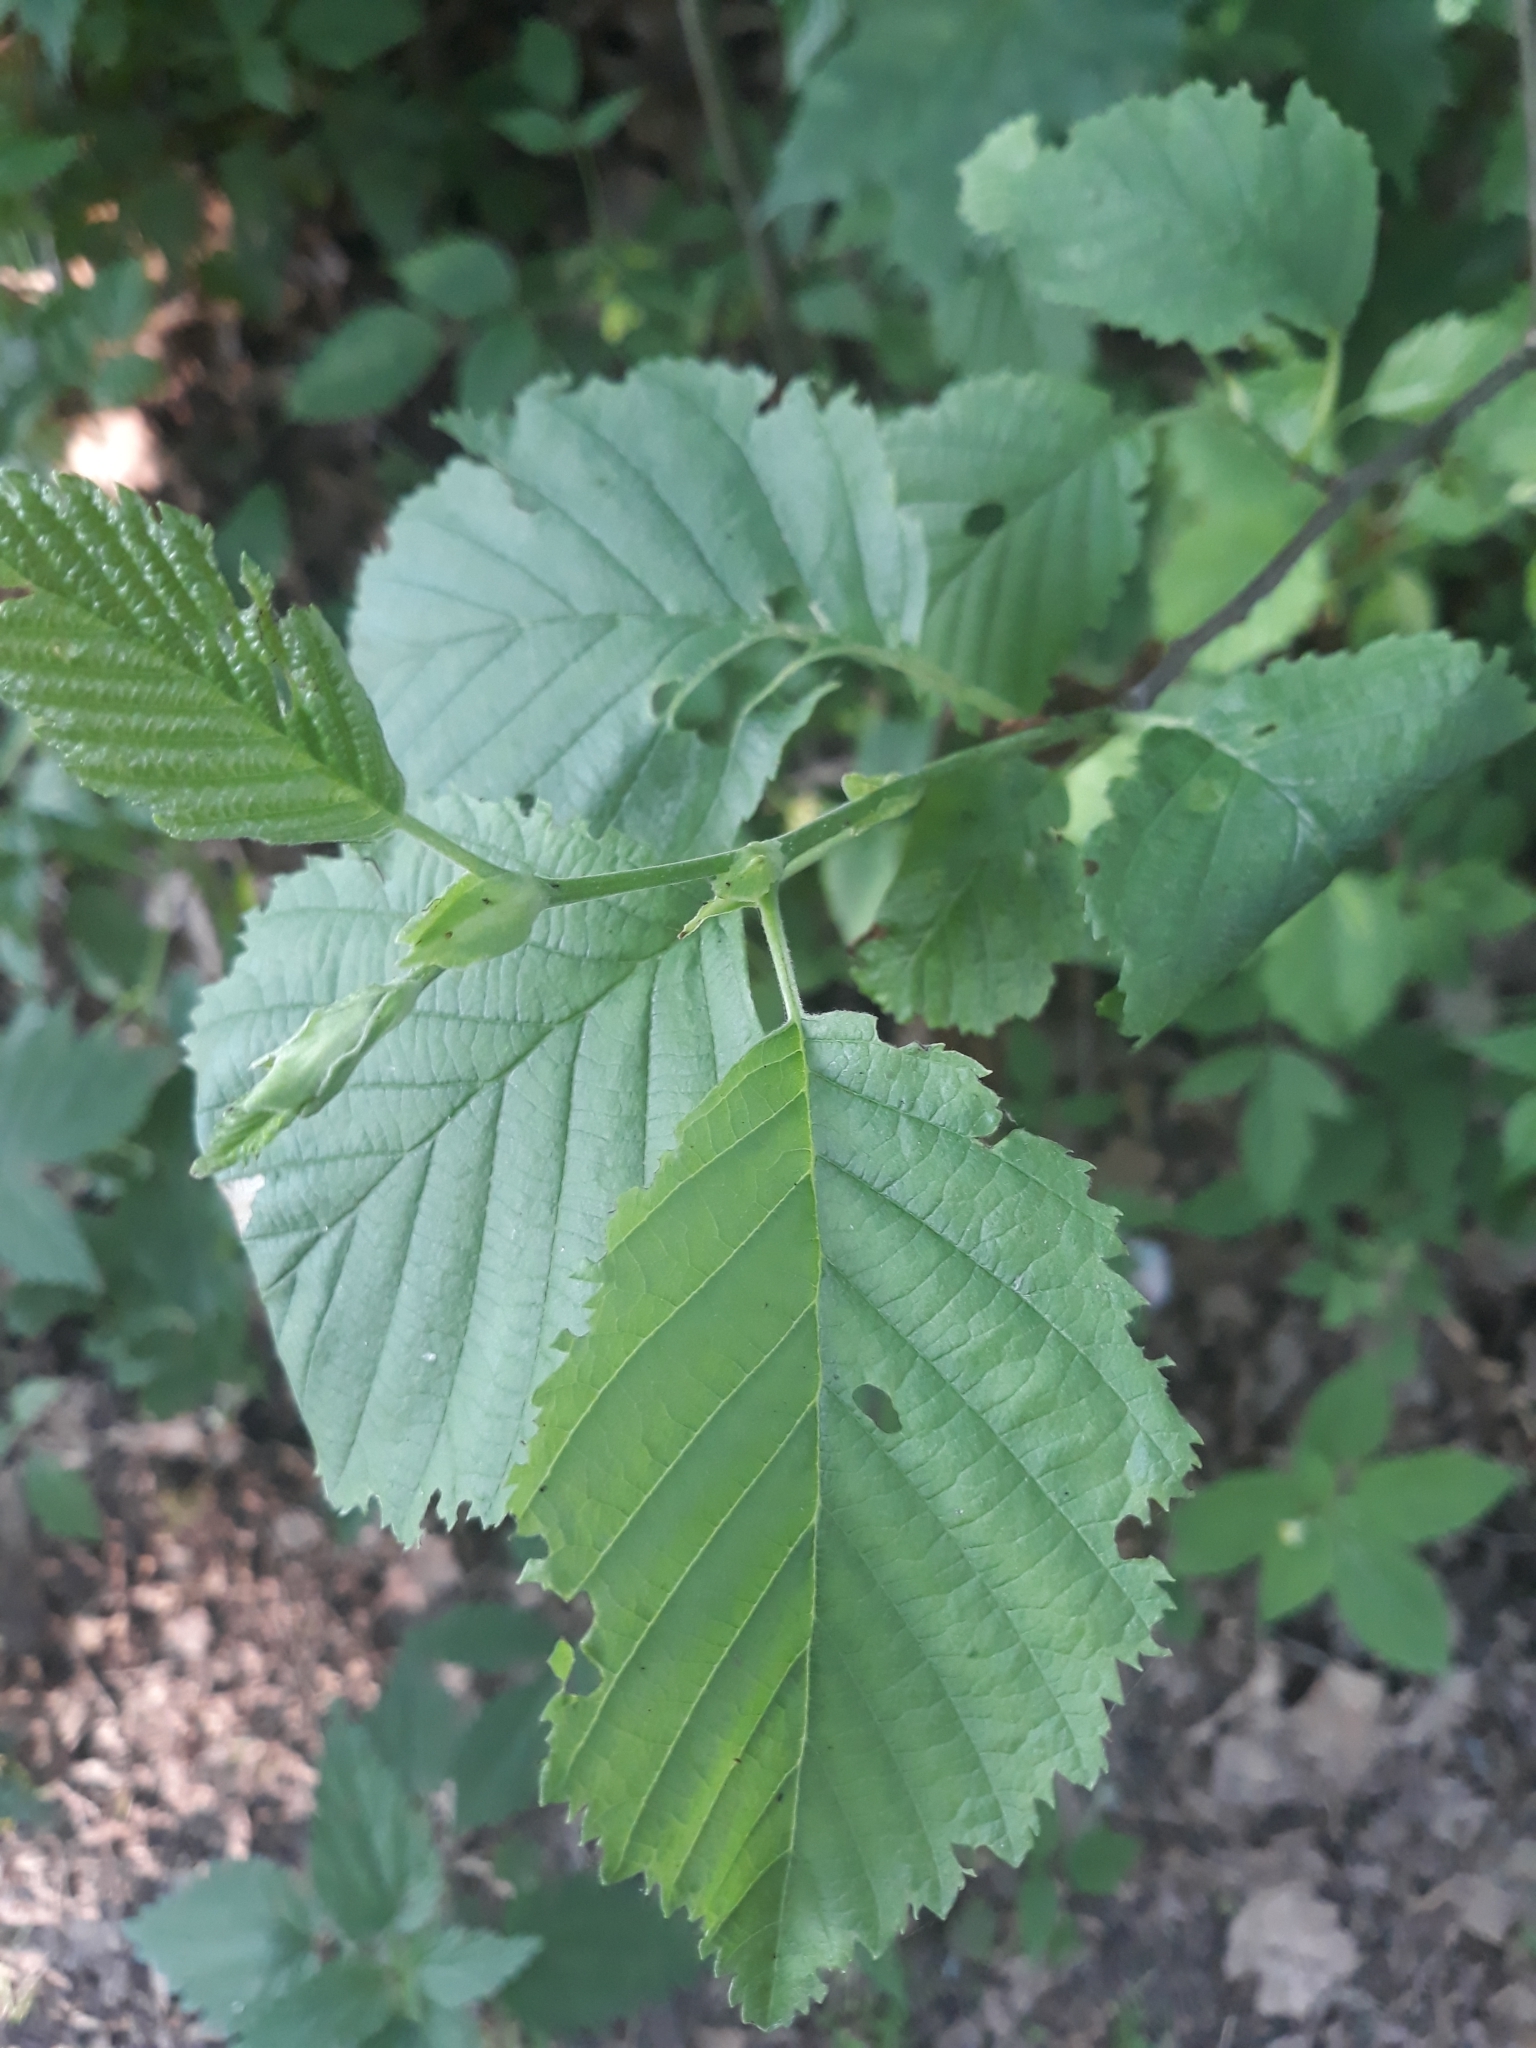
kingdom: Plantae
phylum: Tracheophyta
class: Magnoliopsida
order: Fagales
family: Betulaceae
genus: Alnus
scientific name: Alnus incana
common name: Grey alder
